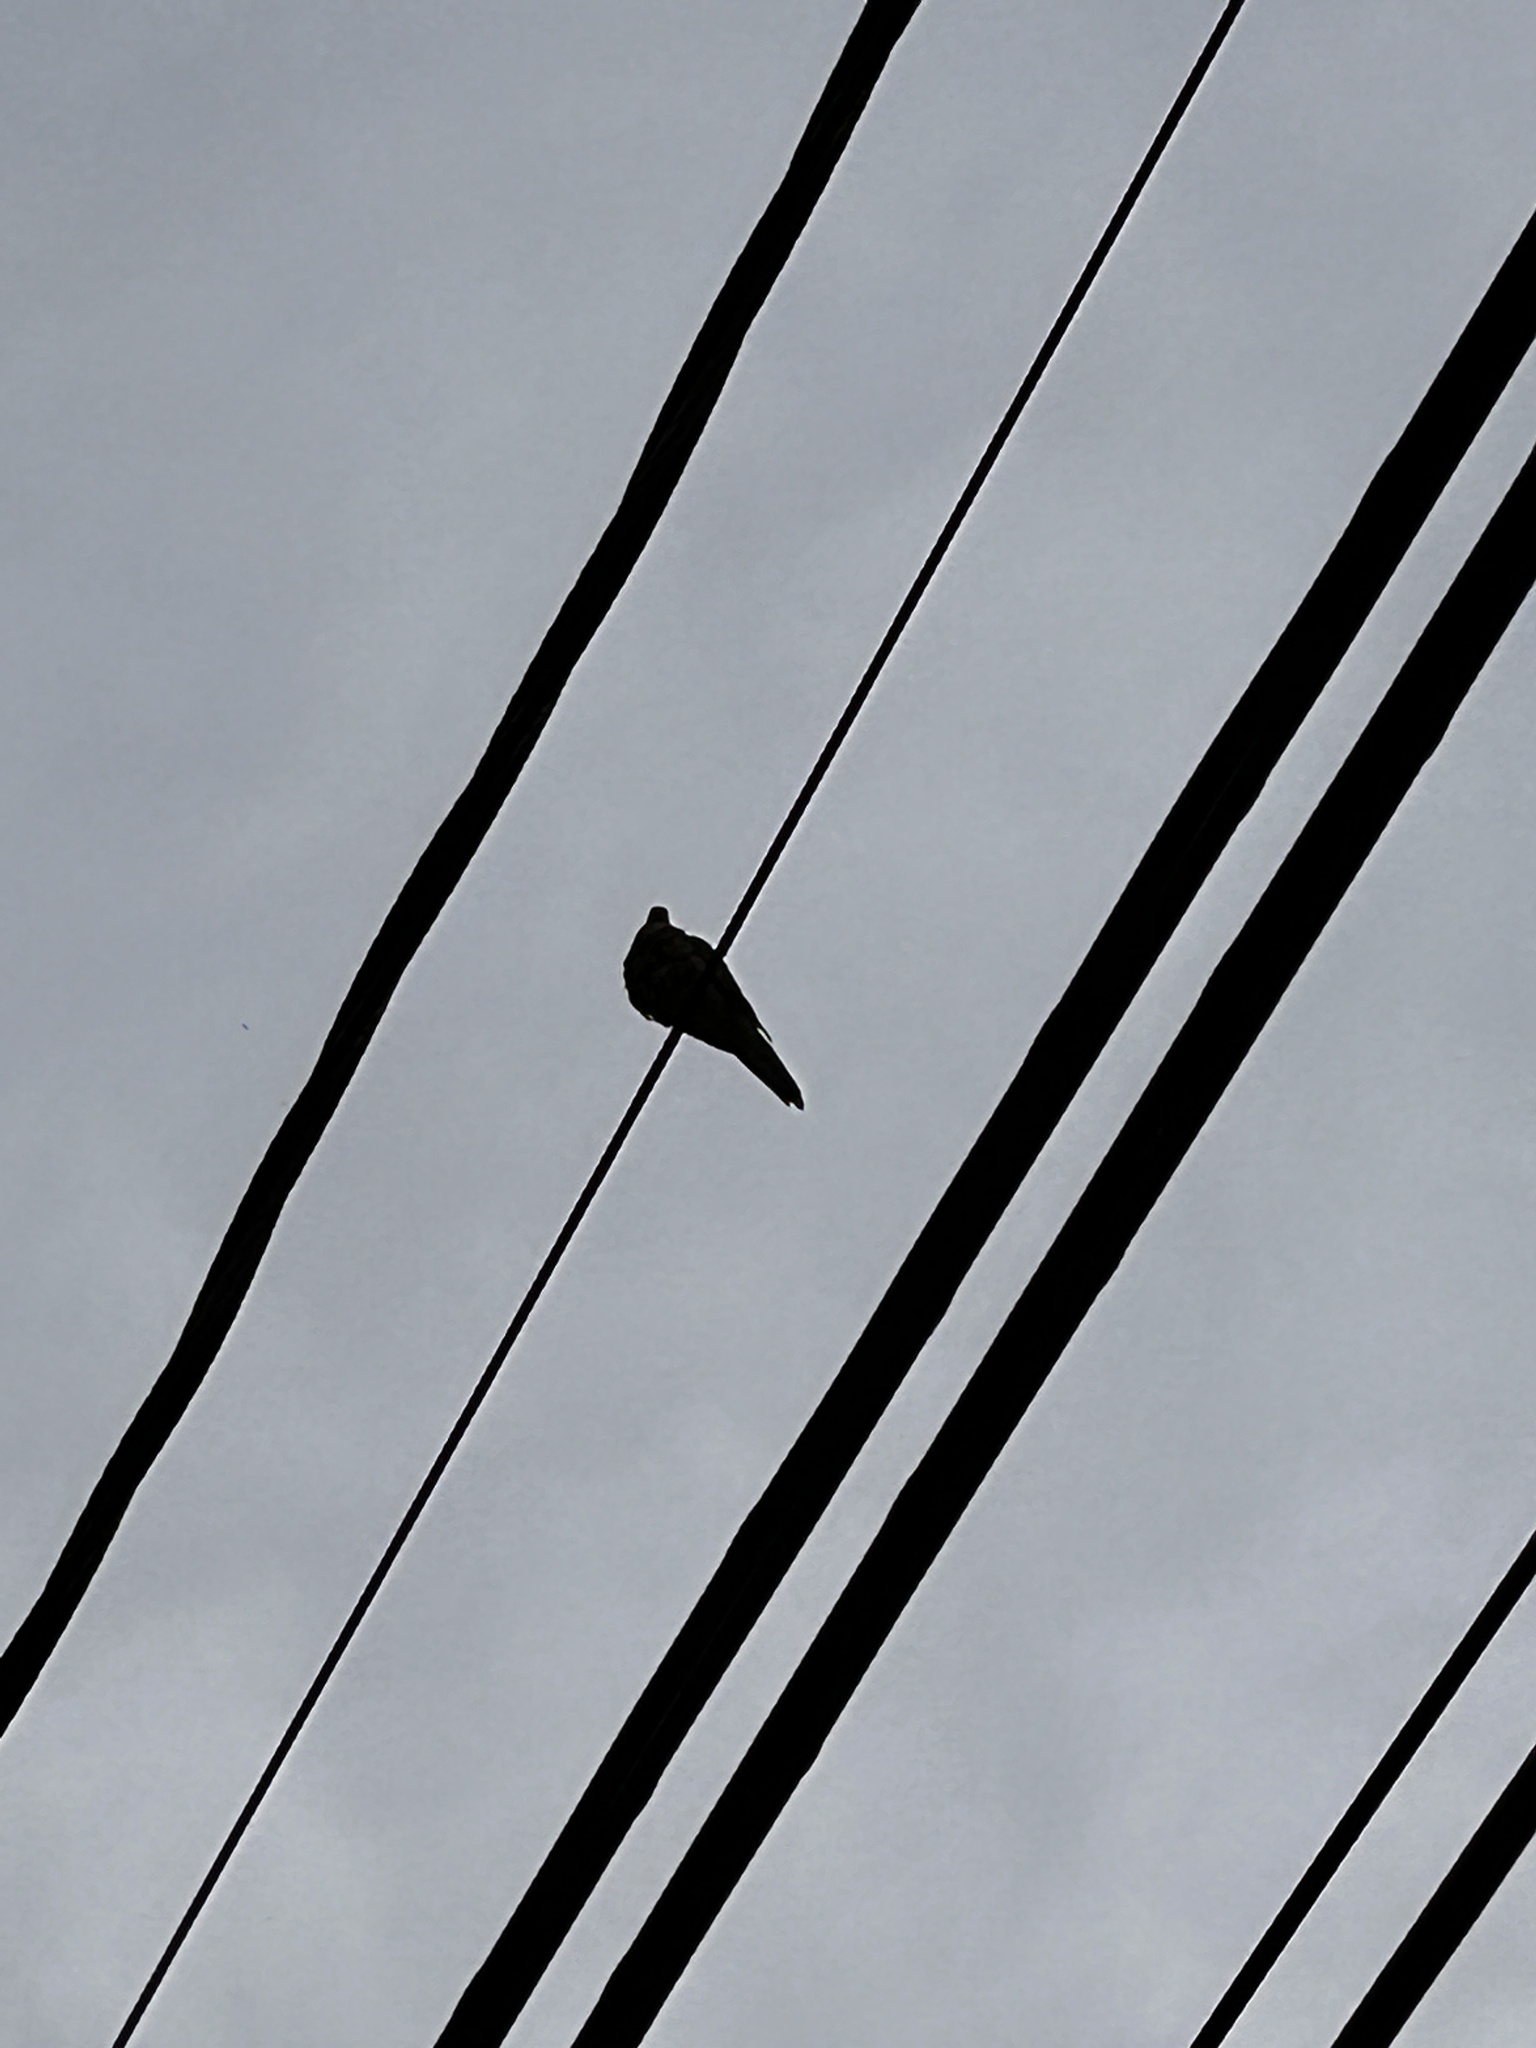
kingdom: Animalia
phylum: Chordata
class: Aves
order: Columbiformes
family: Columbidae
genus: Zenaida
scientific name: Zenaida macroura
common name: Mourning dove
